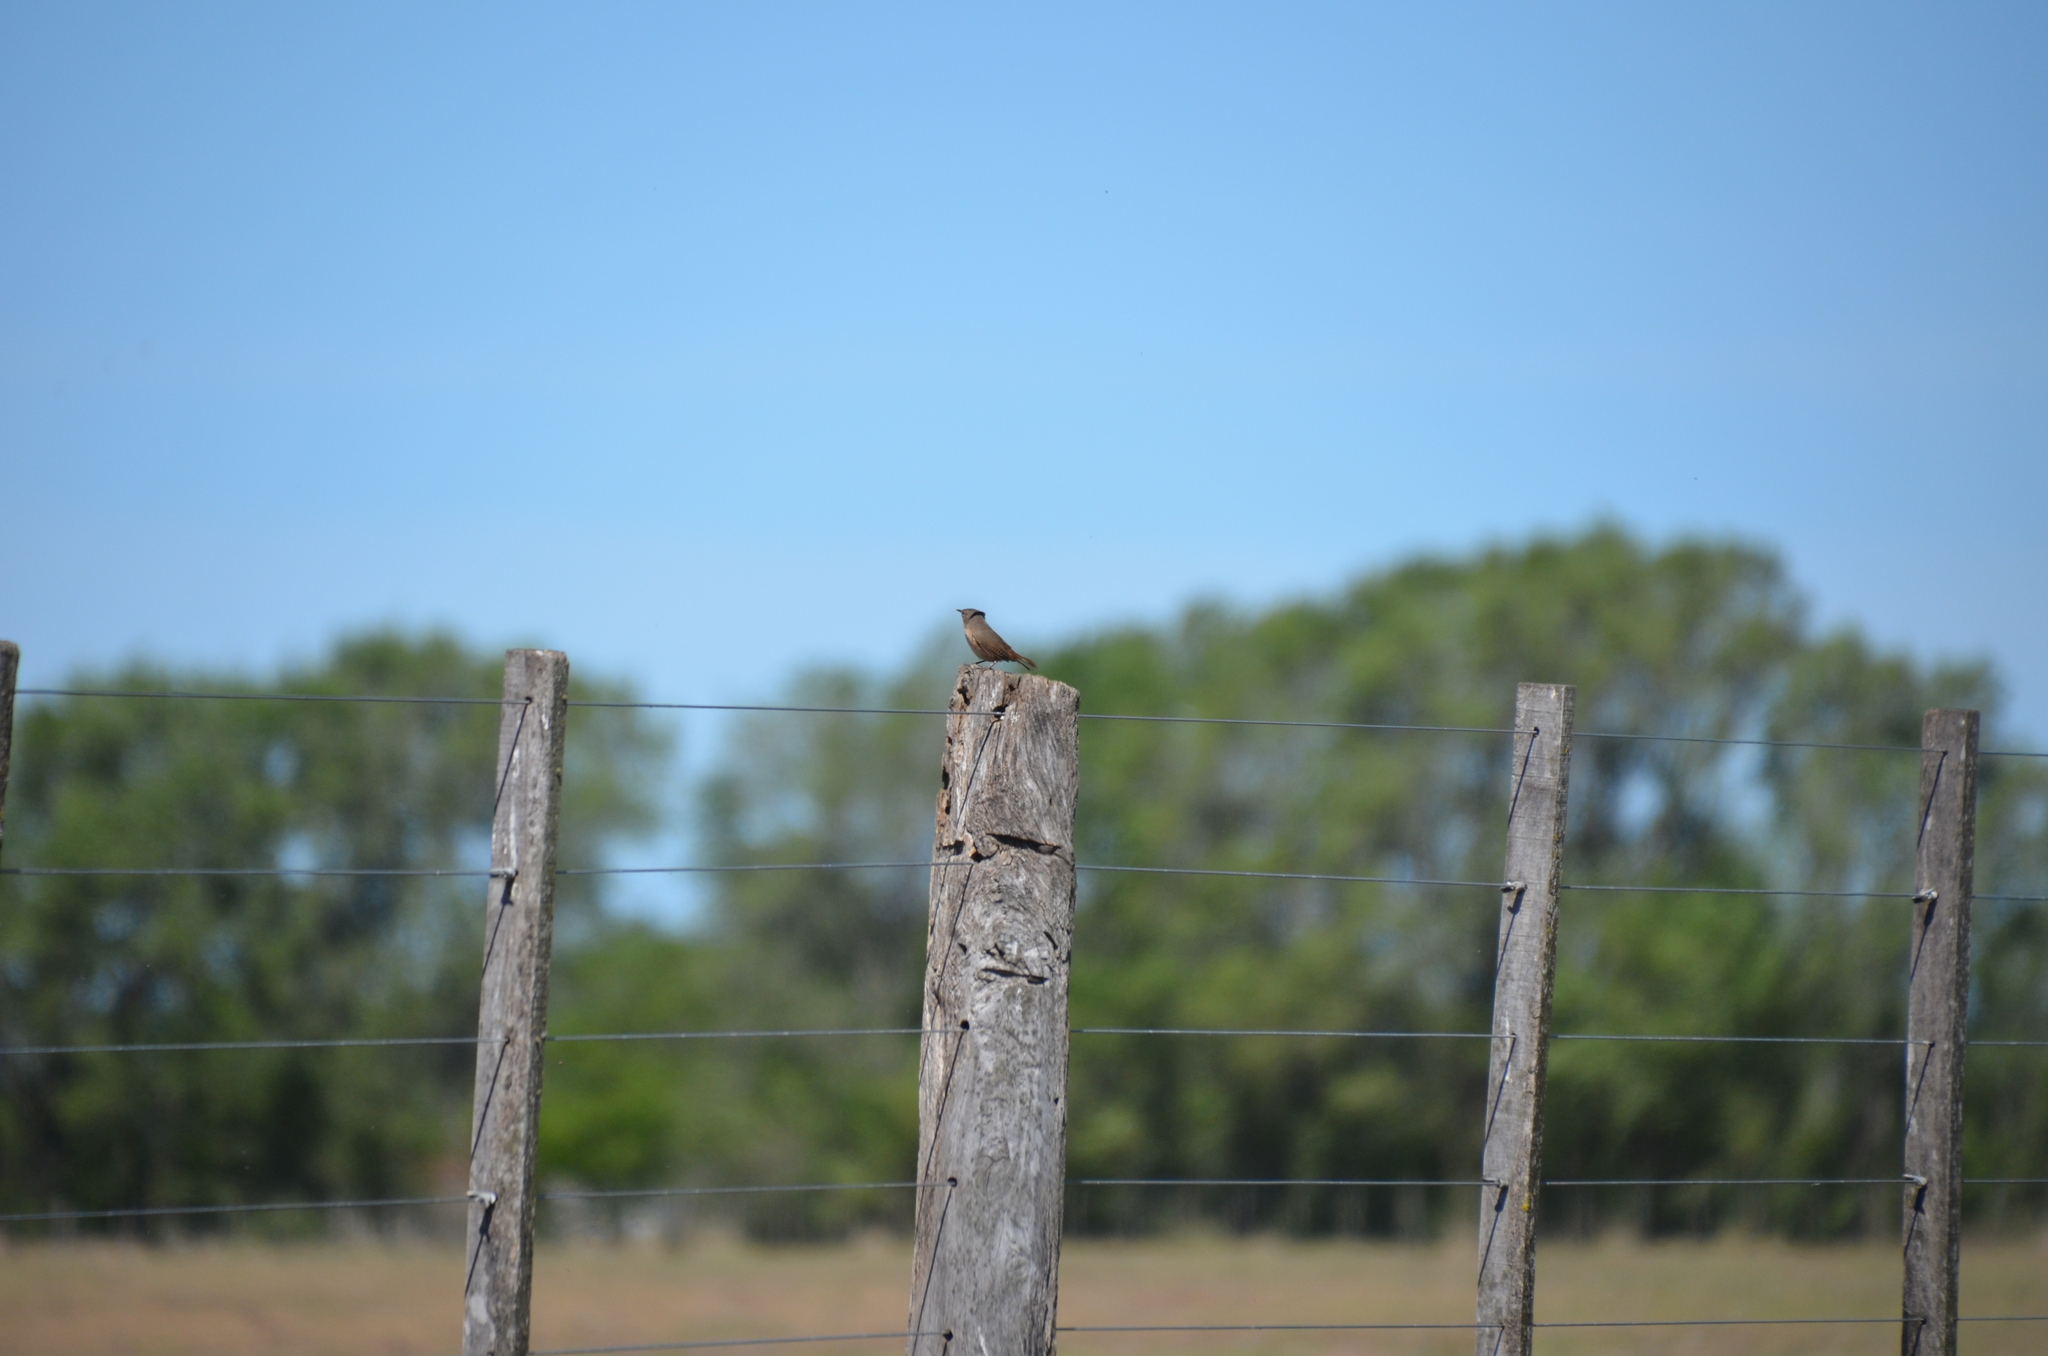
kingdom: Animalia
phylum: Chordata
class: Aves
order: Passeriformes
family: Troglodytidae
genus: Troglodytes
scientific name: Troglodytes aedon
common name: House wren
